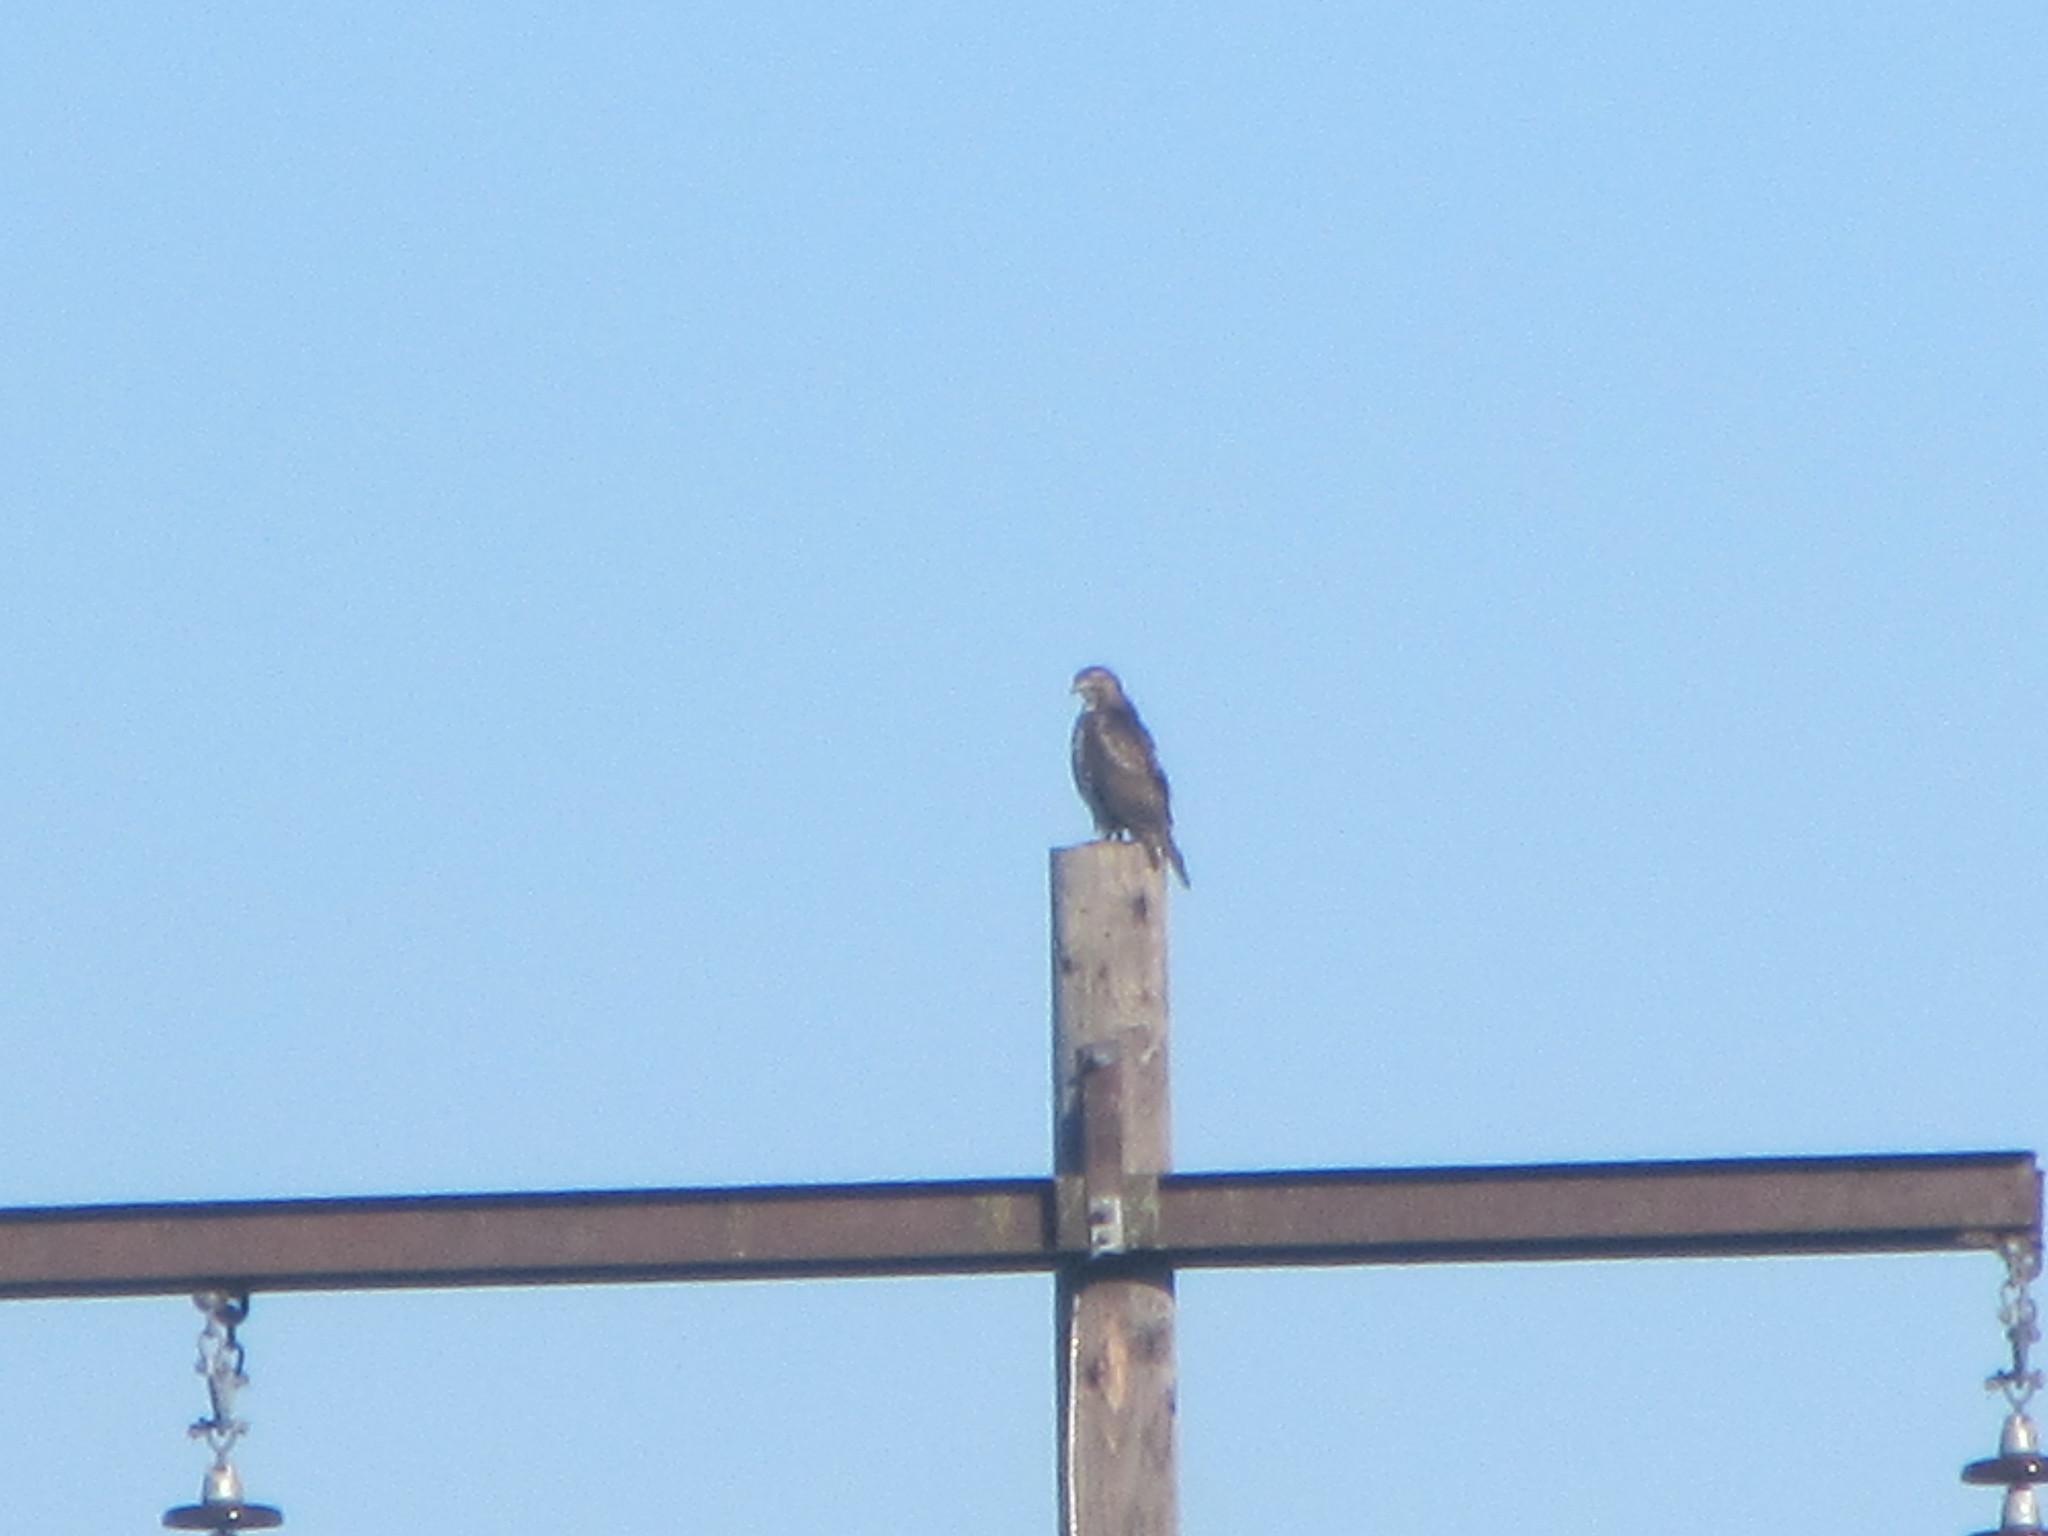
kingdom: Animalia
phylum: Chordata
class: Aves
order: Accipitriformes
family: Accipitridae
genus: Buteo
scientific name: Buteo jamaicensis
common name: Red-tailed hawk
